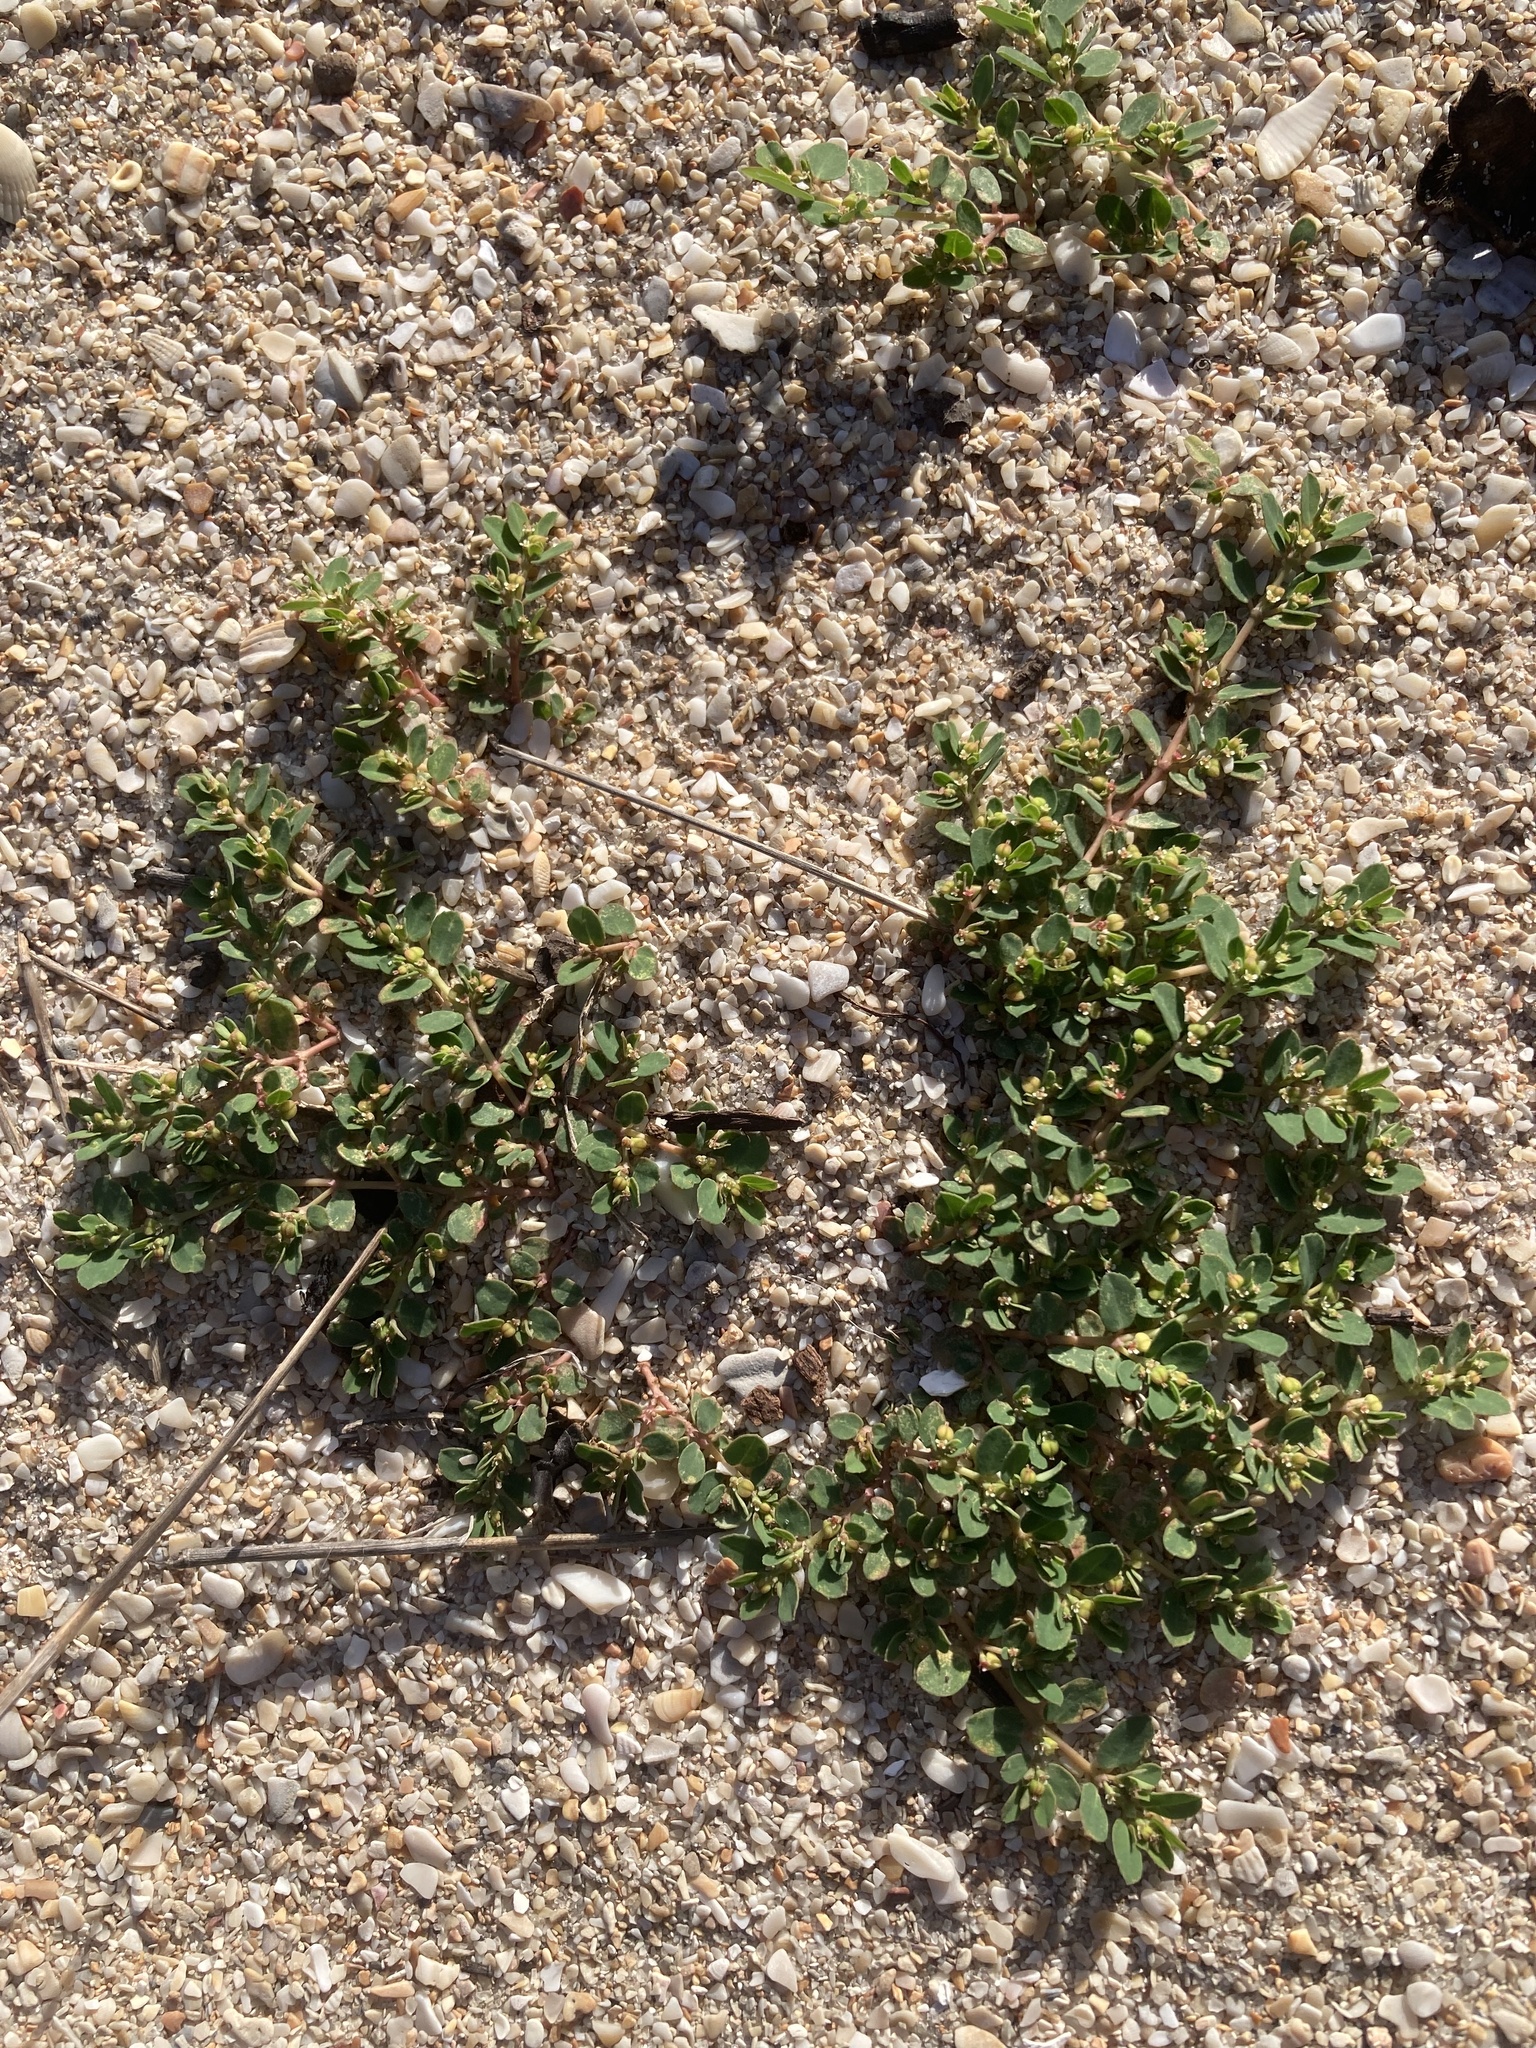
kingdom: Plantae
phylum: Tracheophyta
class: Magnoliopsida
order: Malpighiales
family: Euphorbiaceae
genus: Euphorbia
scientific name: Euphorbia blodgettii
